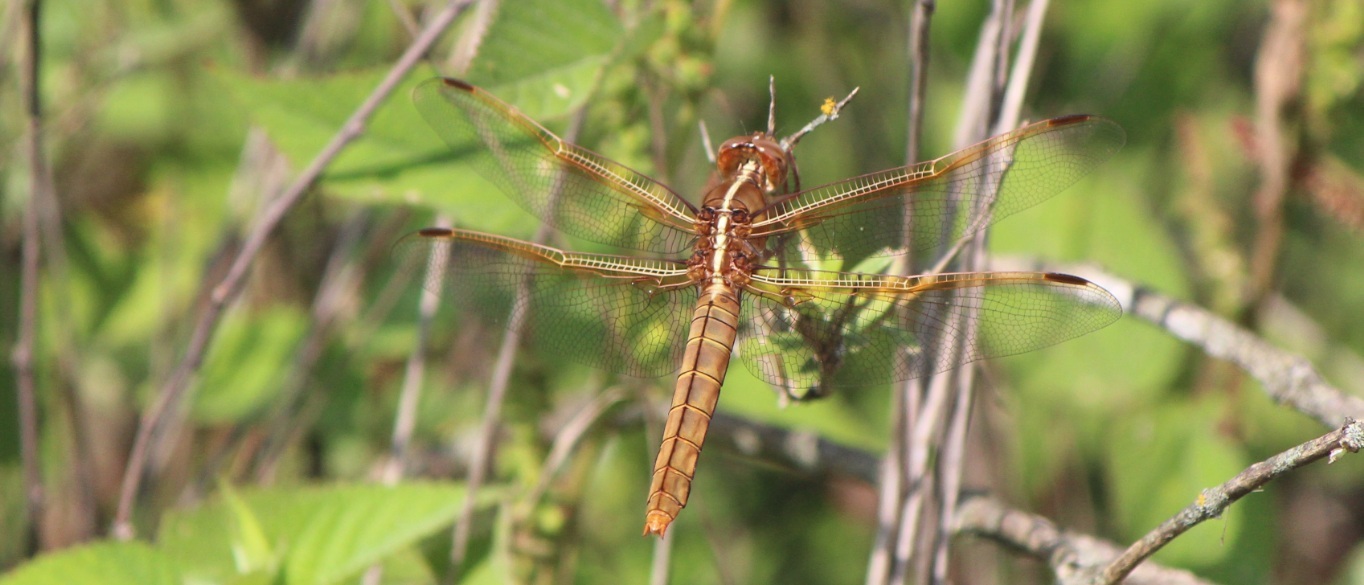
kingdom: Animalia
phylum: Arthropoda
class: Insecta
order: Odonata
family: Libellulidae
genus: Libellula
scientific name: Libellula saturata
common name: Flame skimmer
